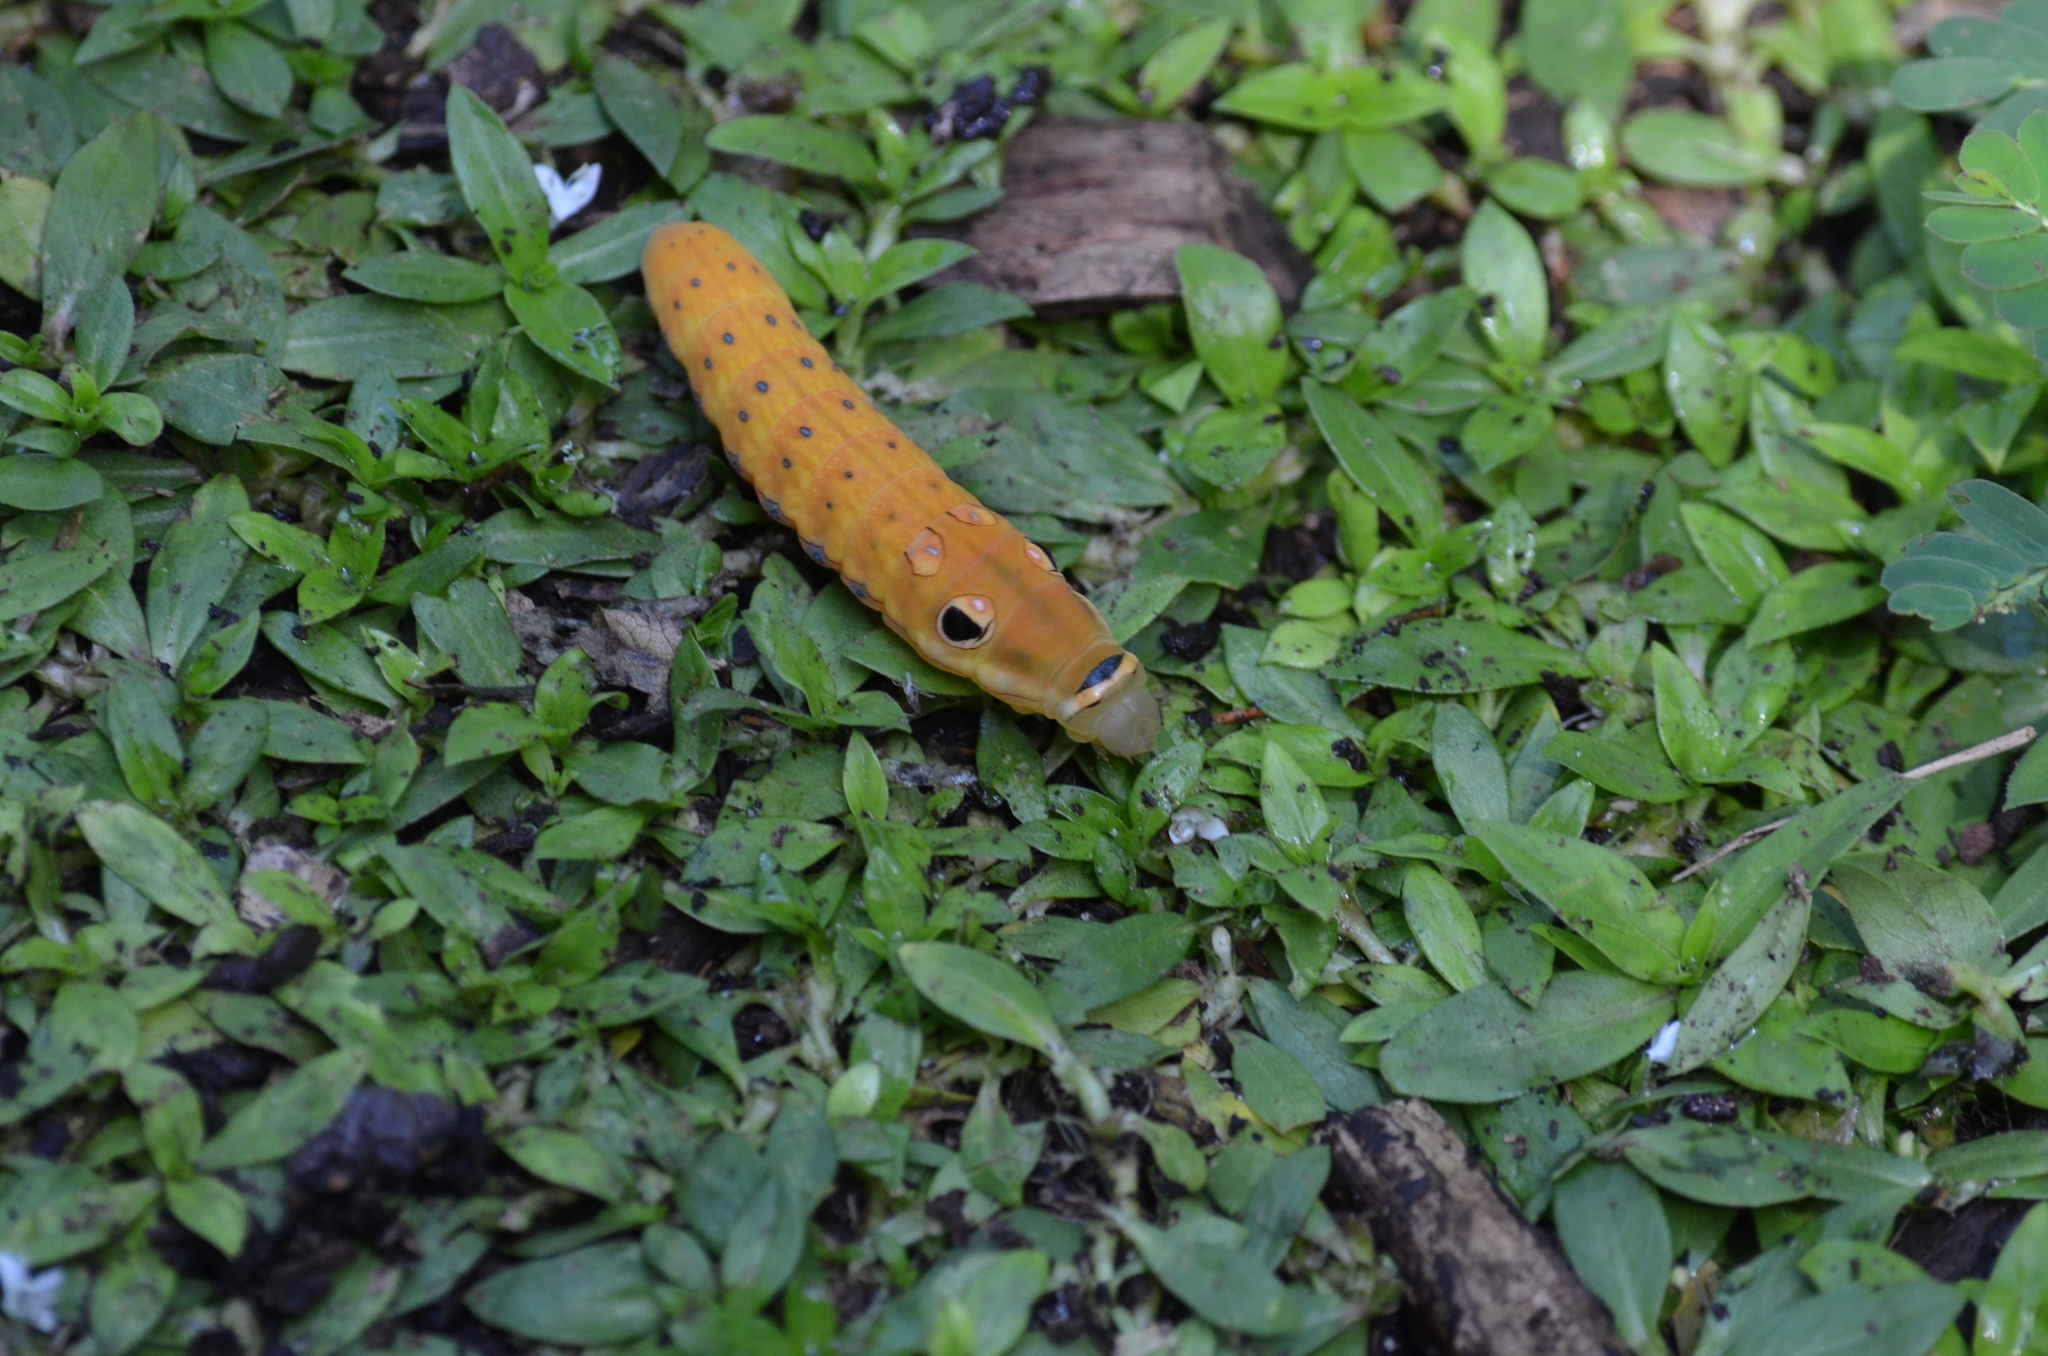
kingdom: Animalia
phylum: Arthropoda
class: Insecta
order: Lepidoptera
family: Papilionidae
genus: Papilio
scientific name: Papilio troilus
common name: Spicebush swallowtail
